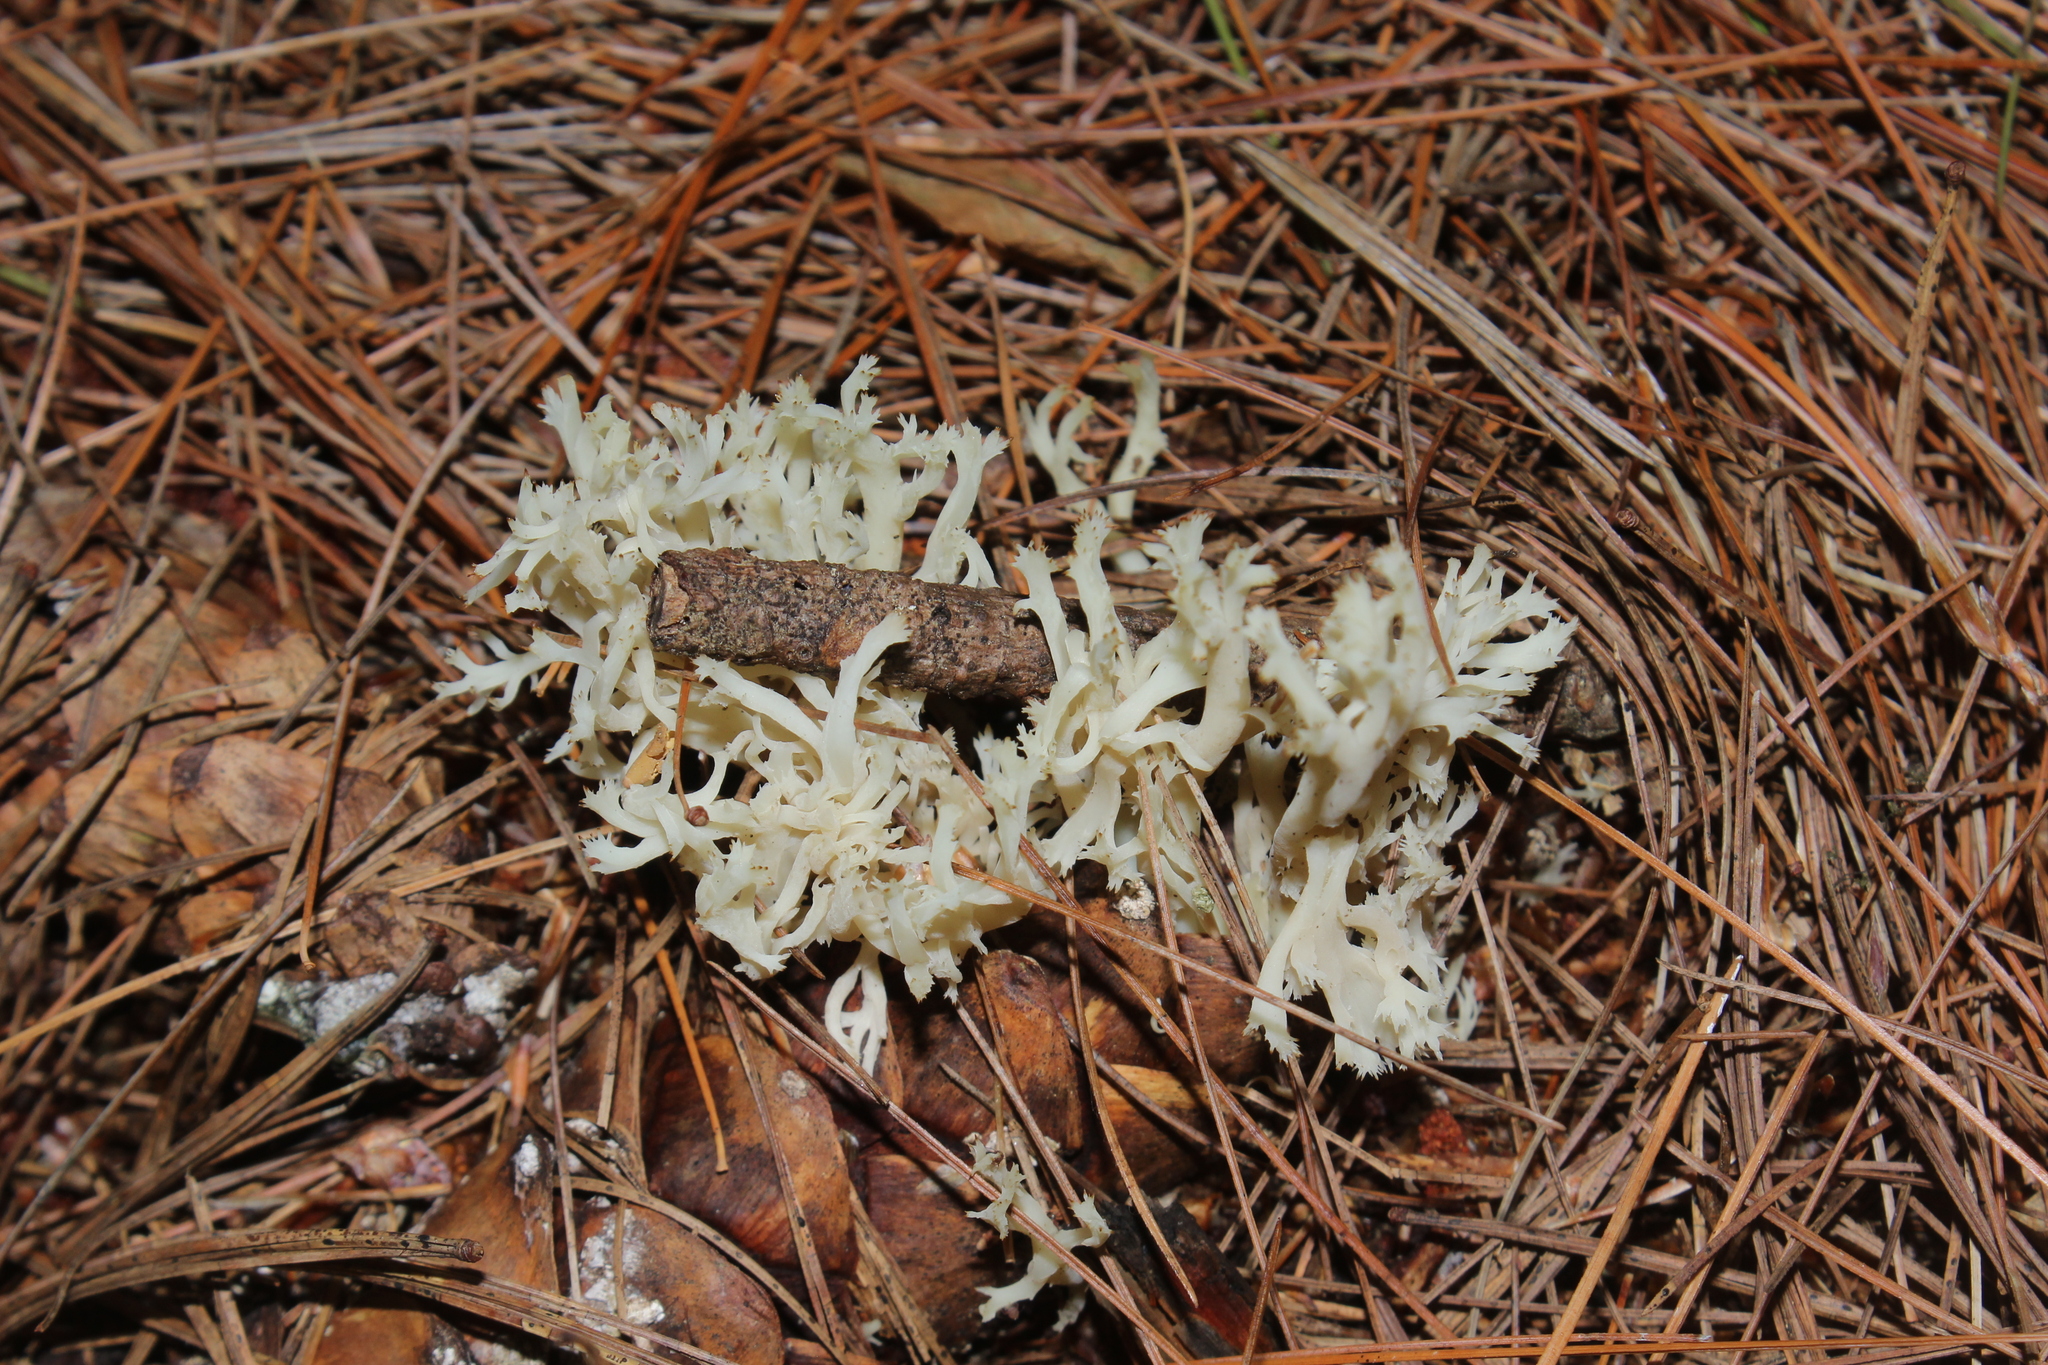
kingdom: Fungi
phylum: Basidiomycota
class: Agaricomycetes
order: Cantharellales
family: Hydnaceae
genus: Clavulina
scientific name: Clavulina coralloides
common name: Crested coral
